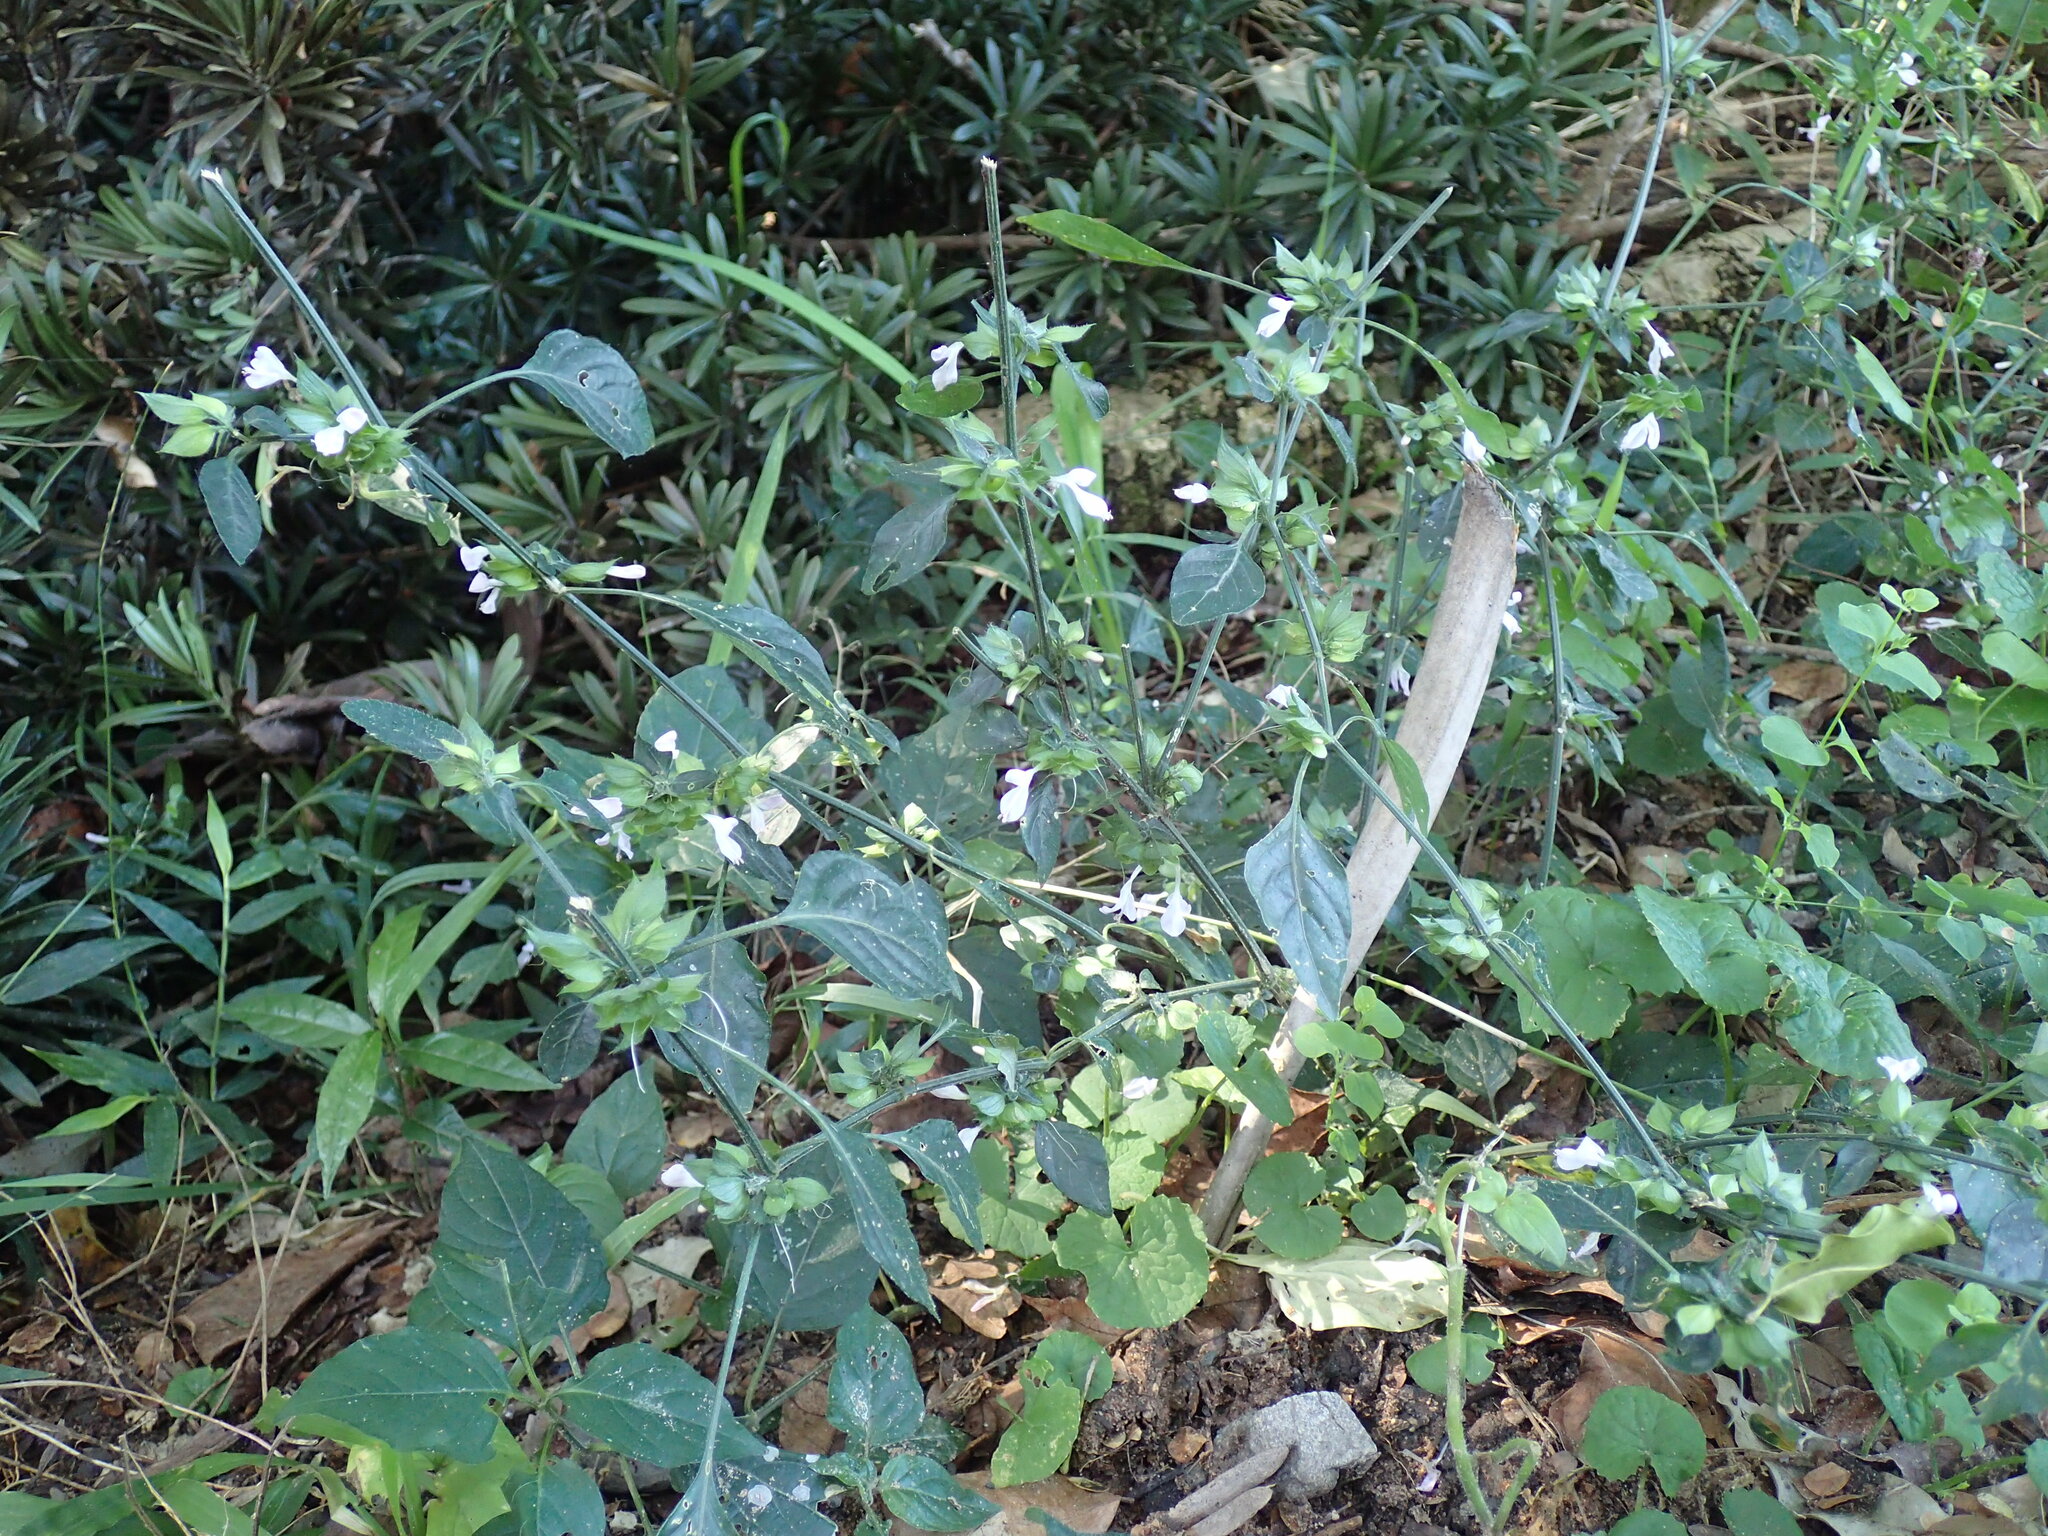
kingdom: Plantae
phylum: Tracheophyta
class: Magnoliopsida
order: Lamiales
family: Acanthaceae
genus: Dicliptera
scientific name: Dicliptera heterostegia
